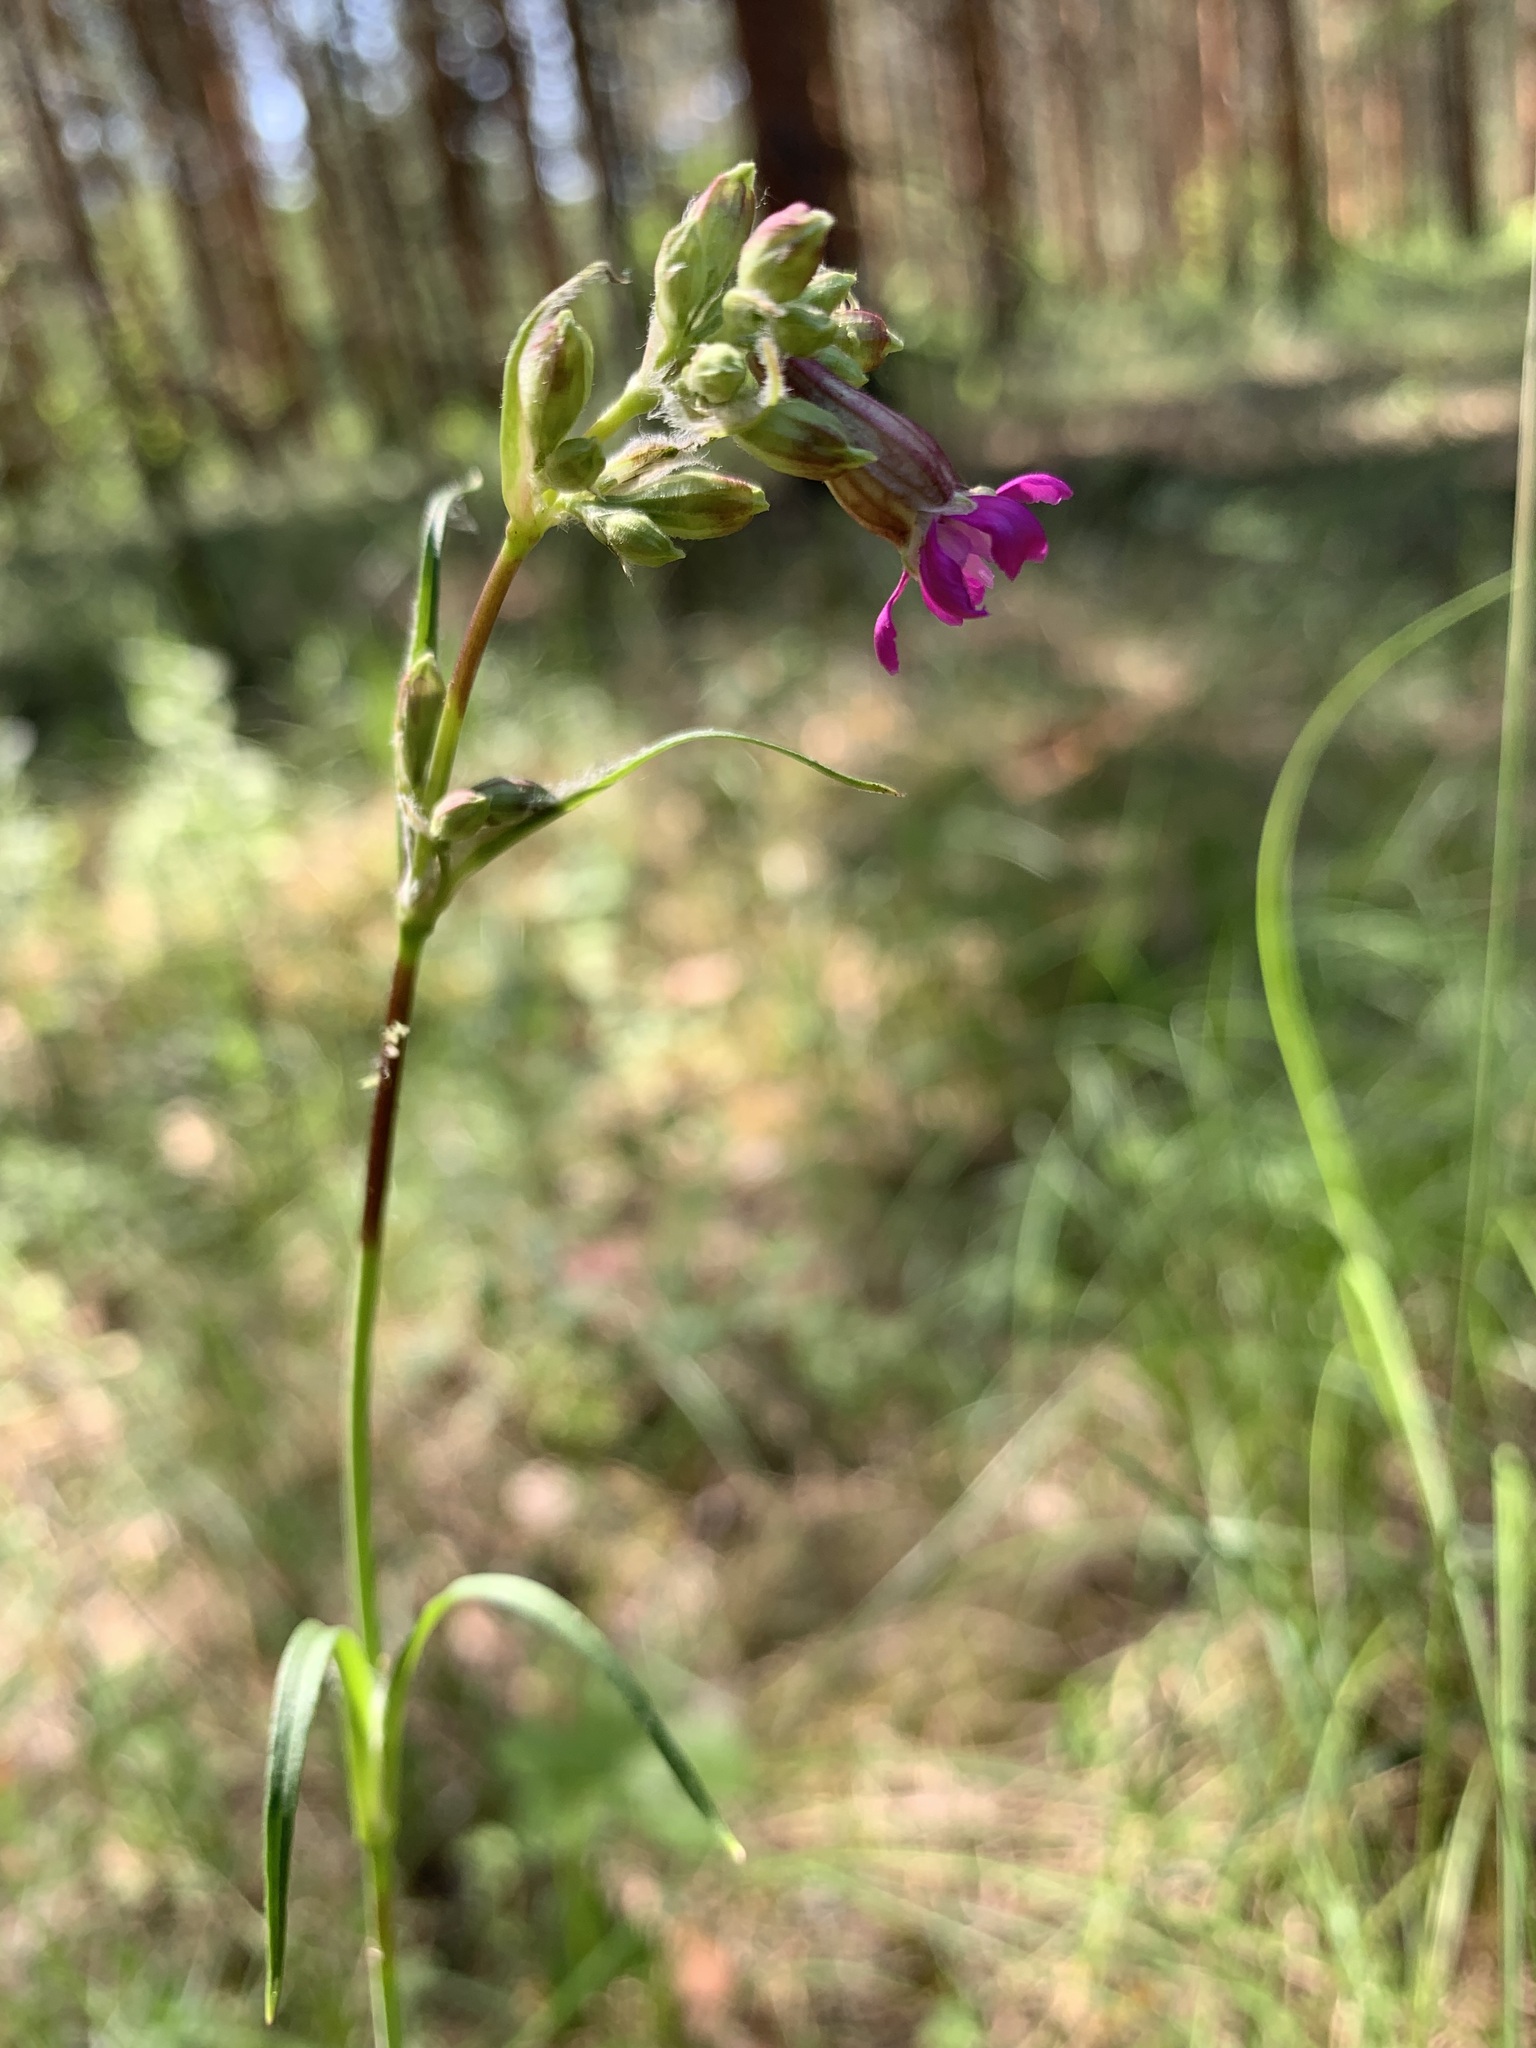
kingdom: Plantae
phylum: Tracheophyta
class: Magnoliopsida
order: Caryophyllales
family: Caryophyllaceae
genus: Viscaria
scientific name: Viscaria vulgaris
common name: Clammy campion
